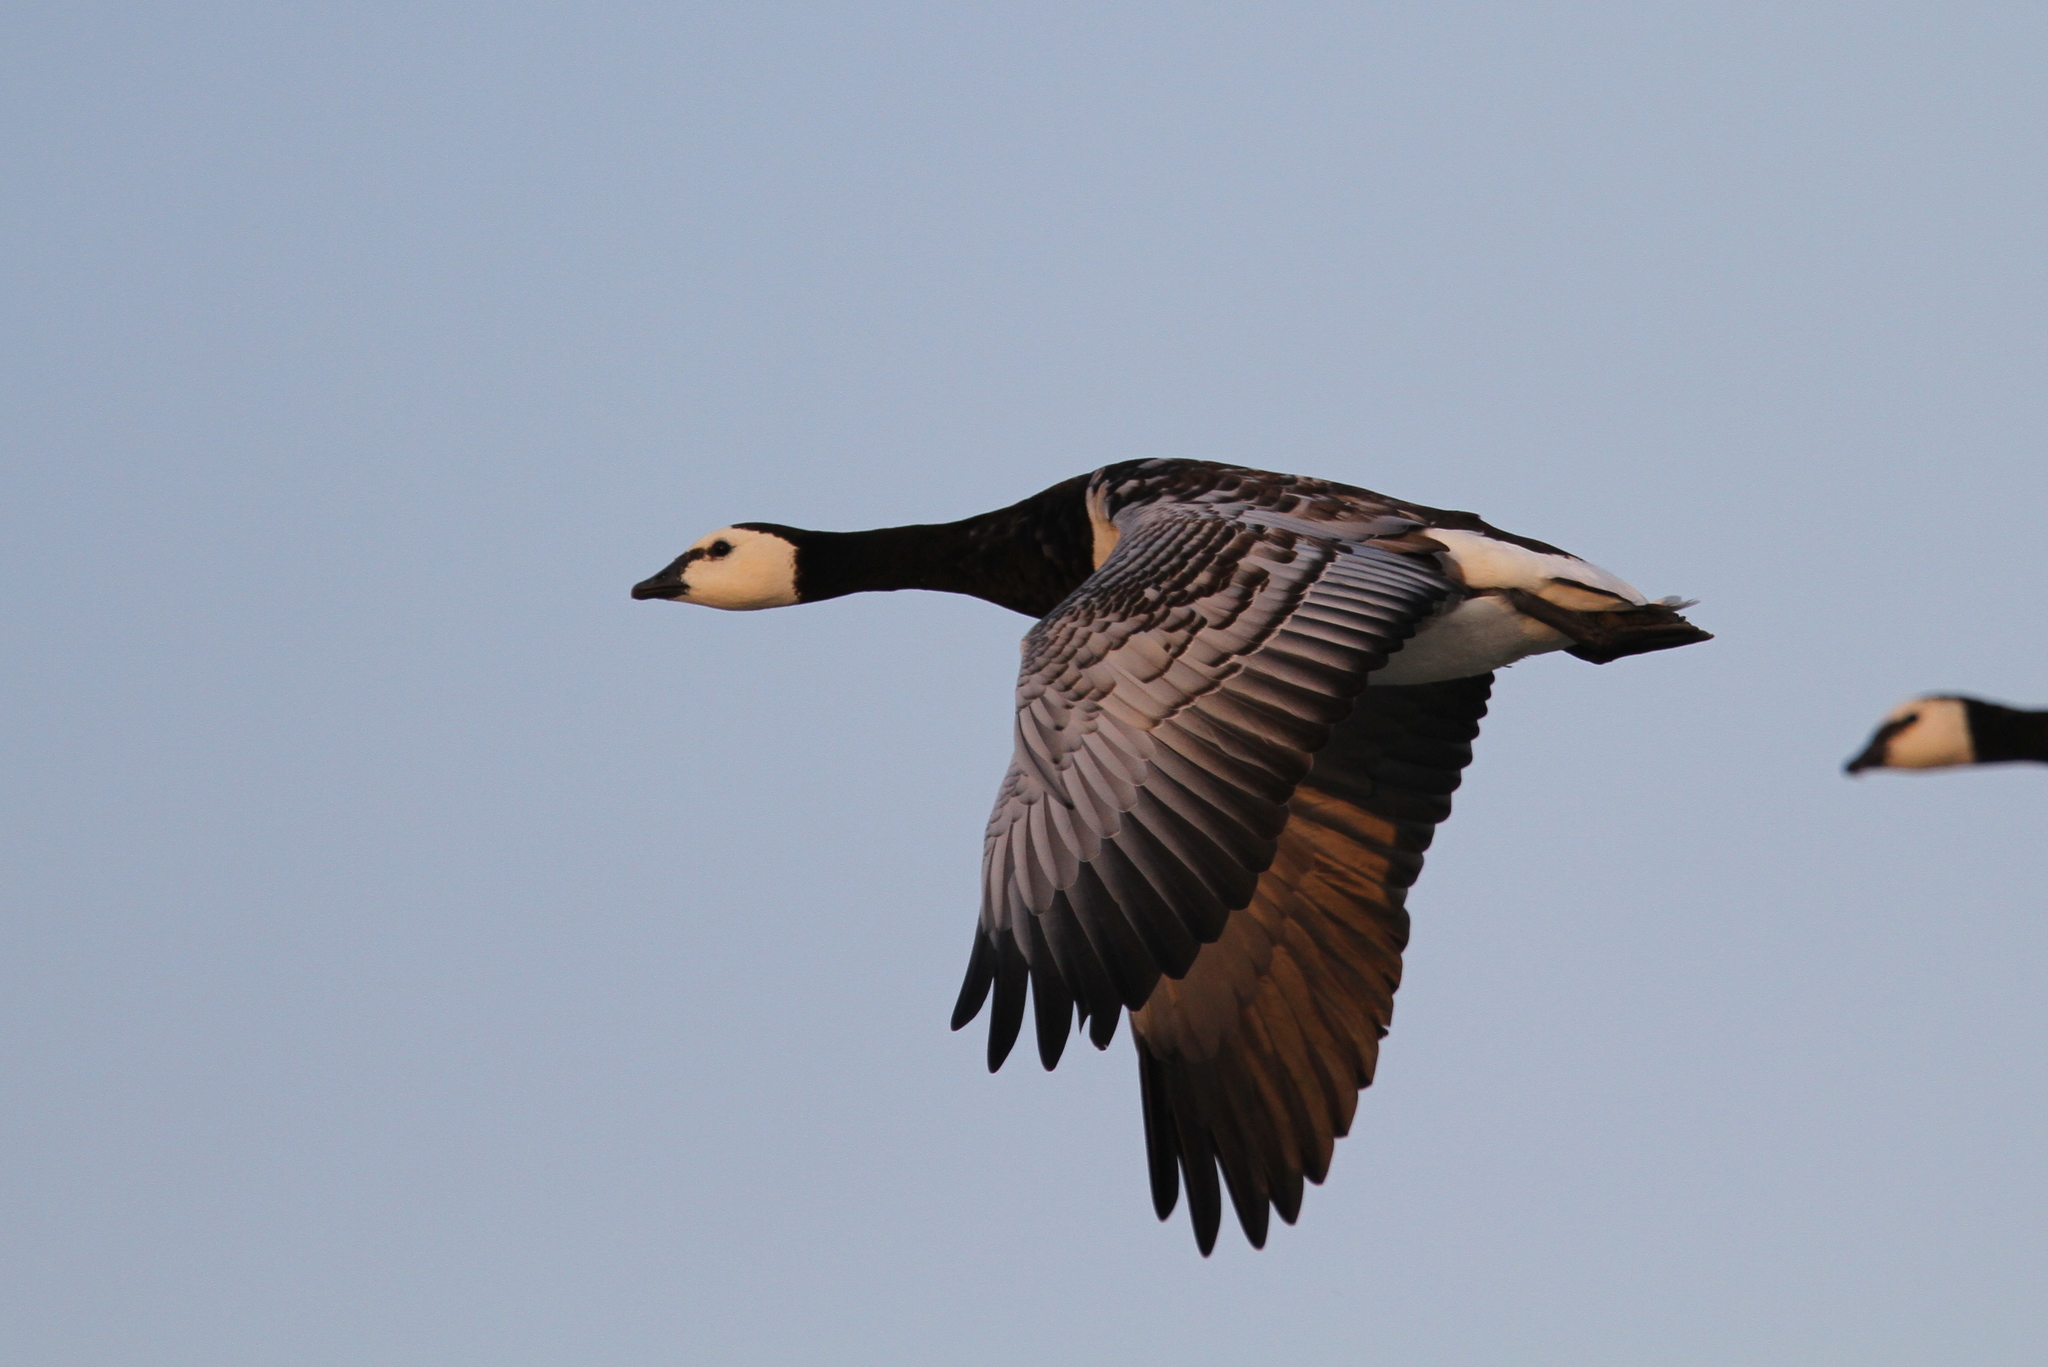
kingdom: Animalia
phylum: Chordata
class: Aves
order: Anseriformes
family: Anatidae
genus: Branta
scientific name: Branta leucopsis
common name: Barnacle goose
